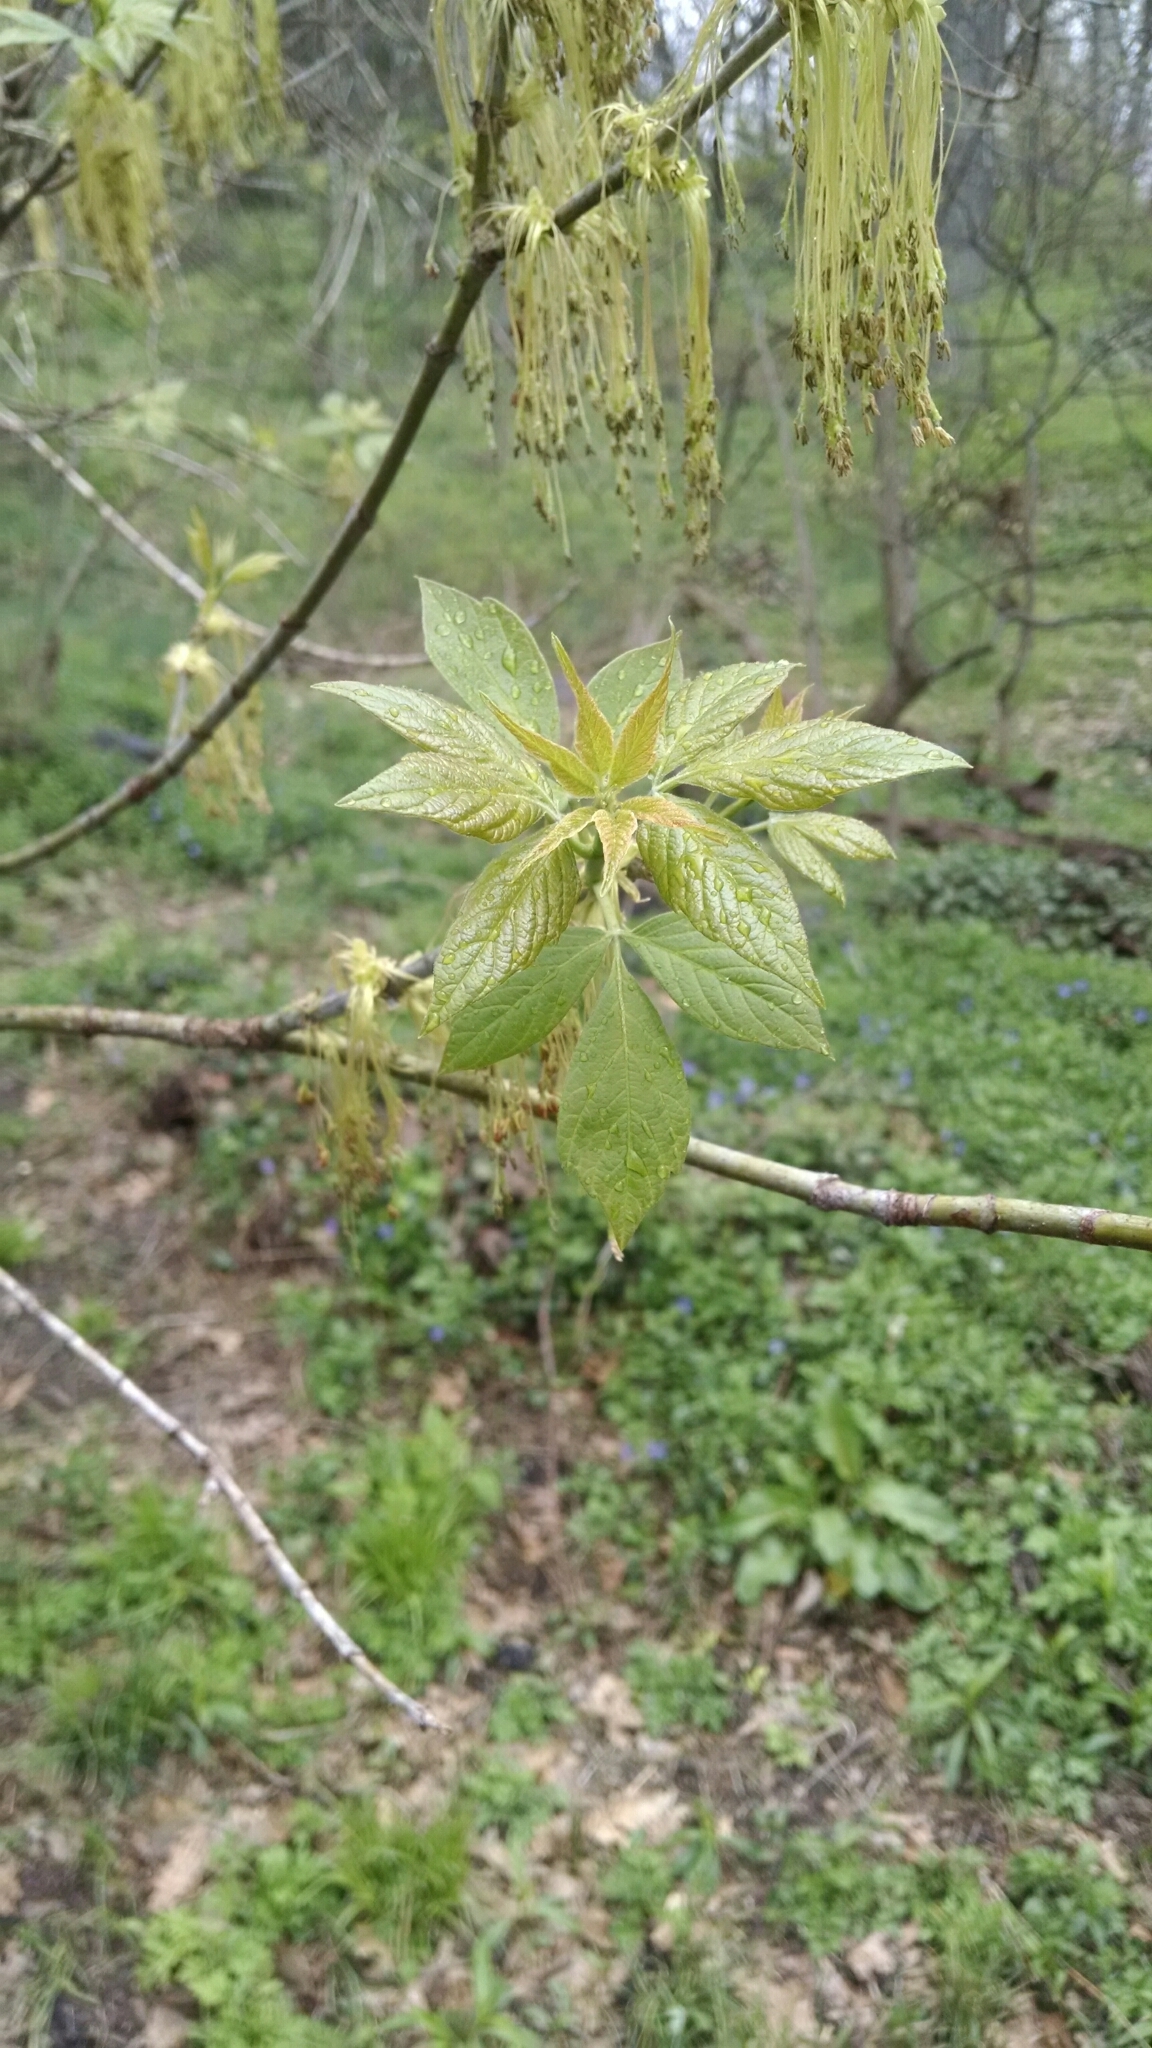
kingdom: Plantae
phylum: Tracheophyta
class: Magnoliopsida
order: Sapindales
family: Sapindaceae
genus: Acer
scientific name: Acer negundo
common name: Ashleaf maple
